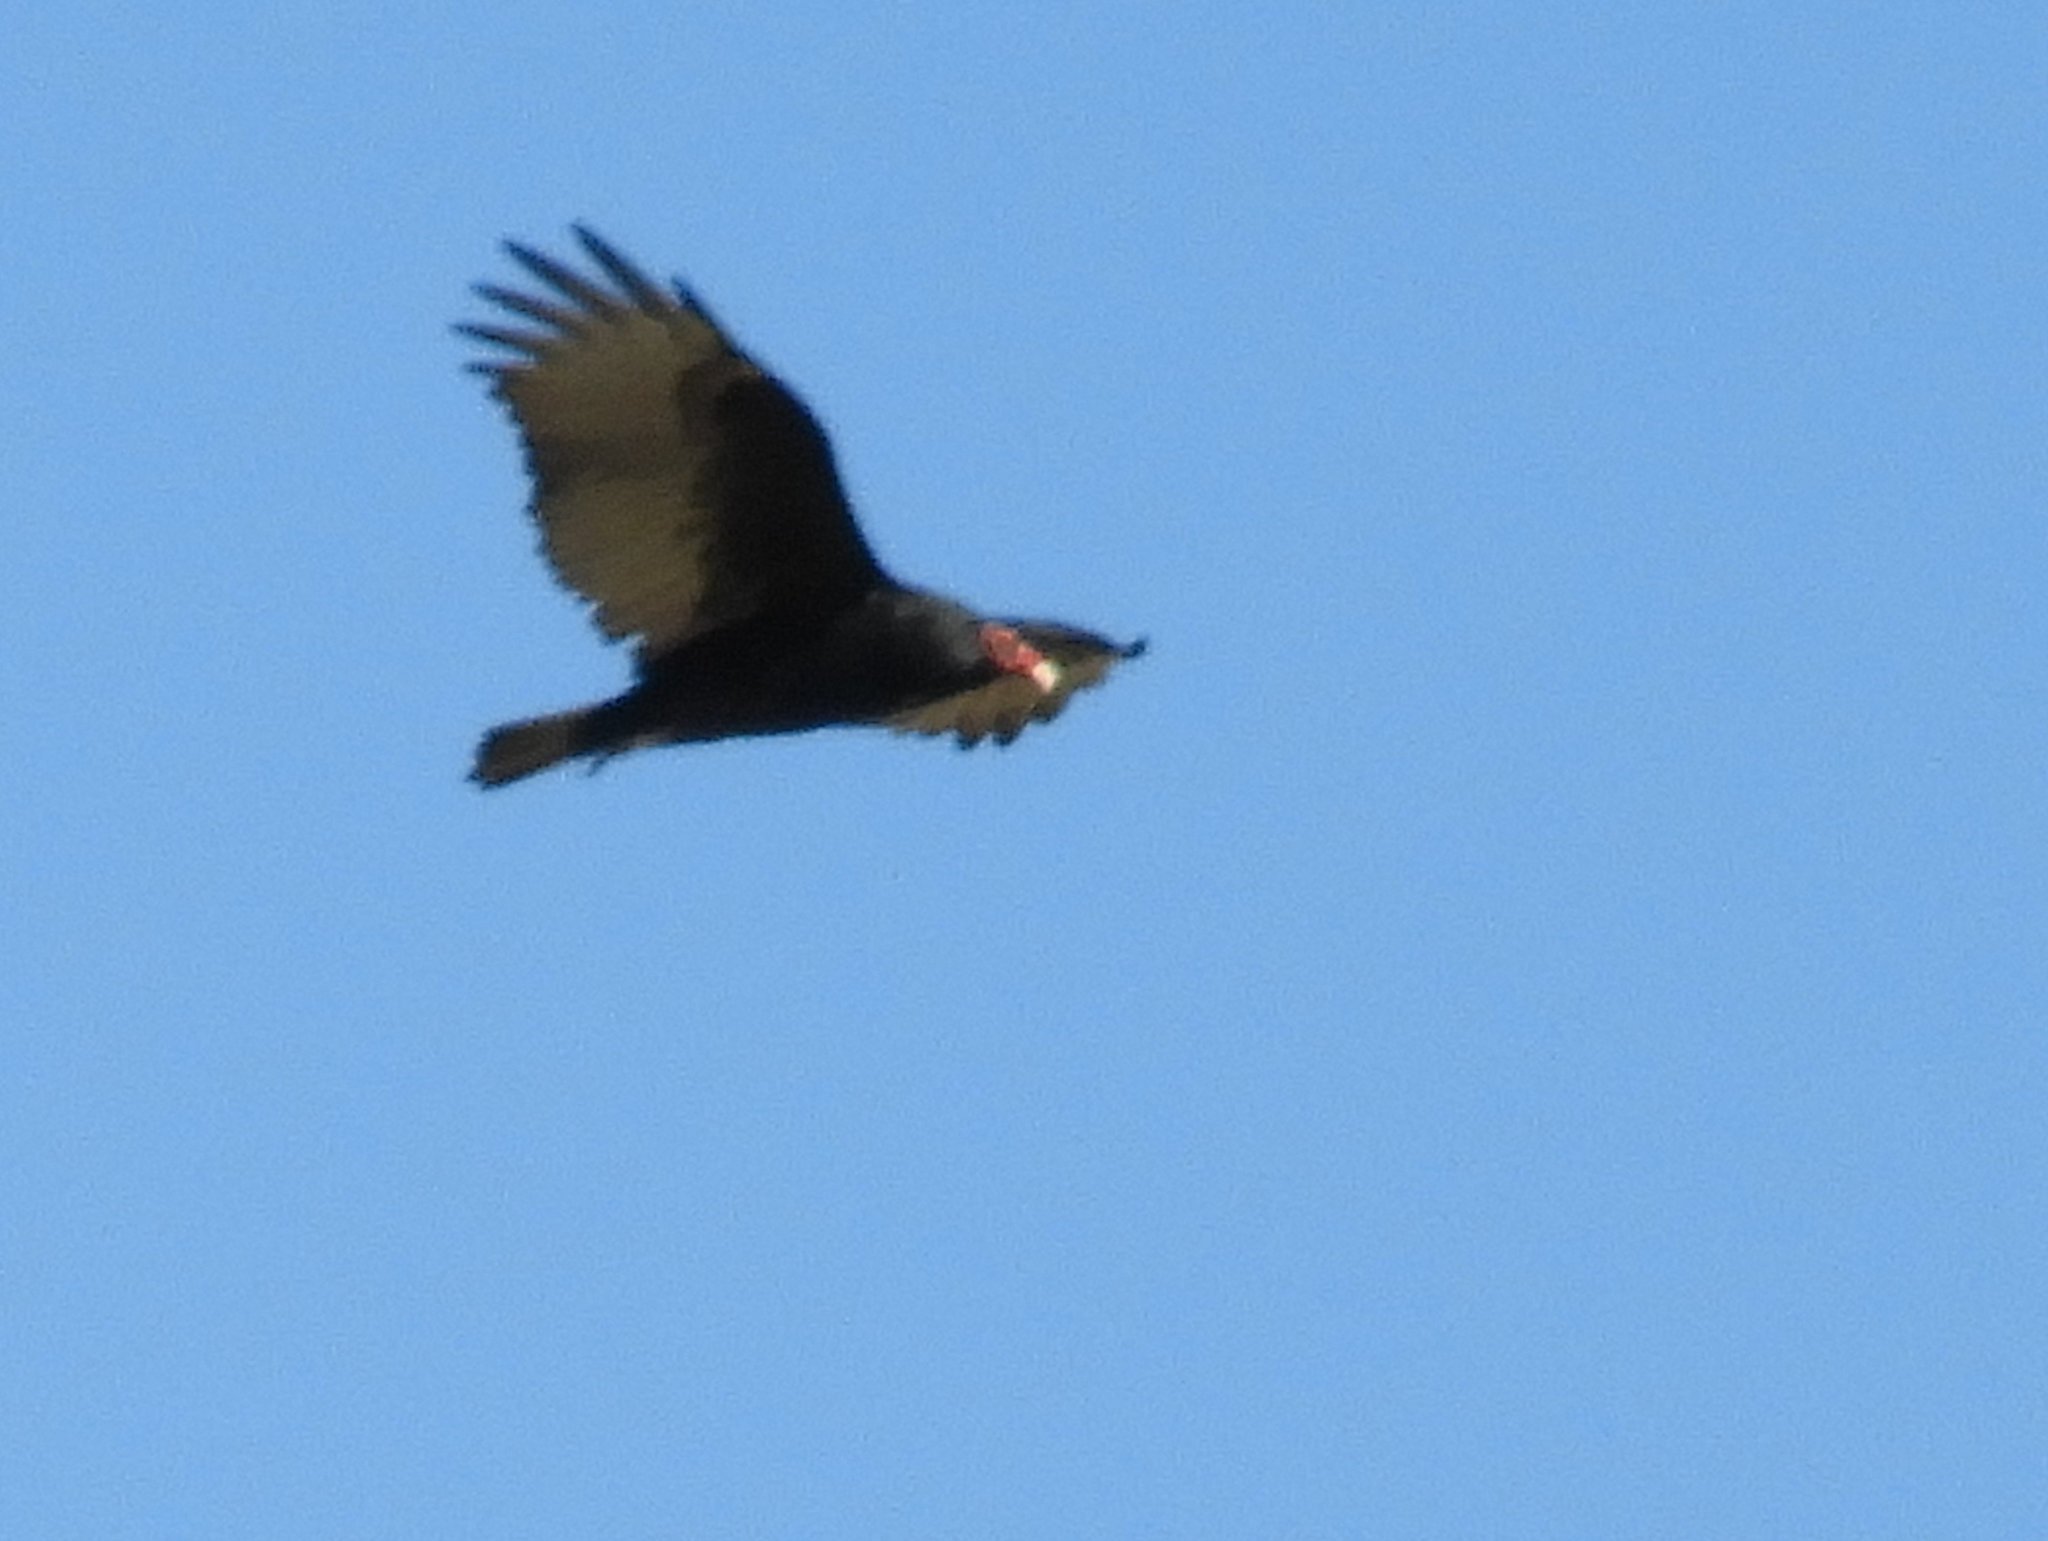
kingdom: Animalia
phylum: Chordata
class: Aves
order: Accipitriformes
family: Cathartidae
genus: Cathartes
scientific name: Cathartes aura
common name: Turkey vulture
